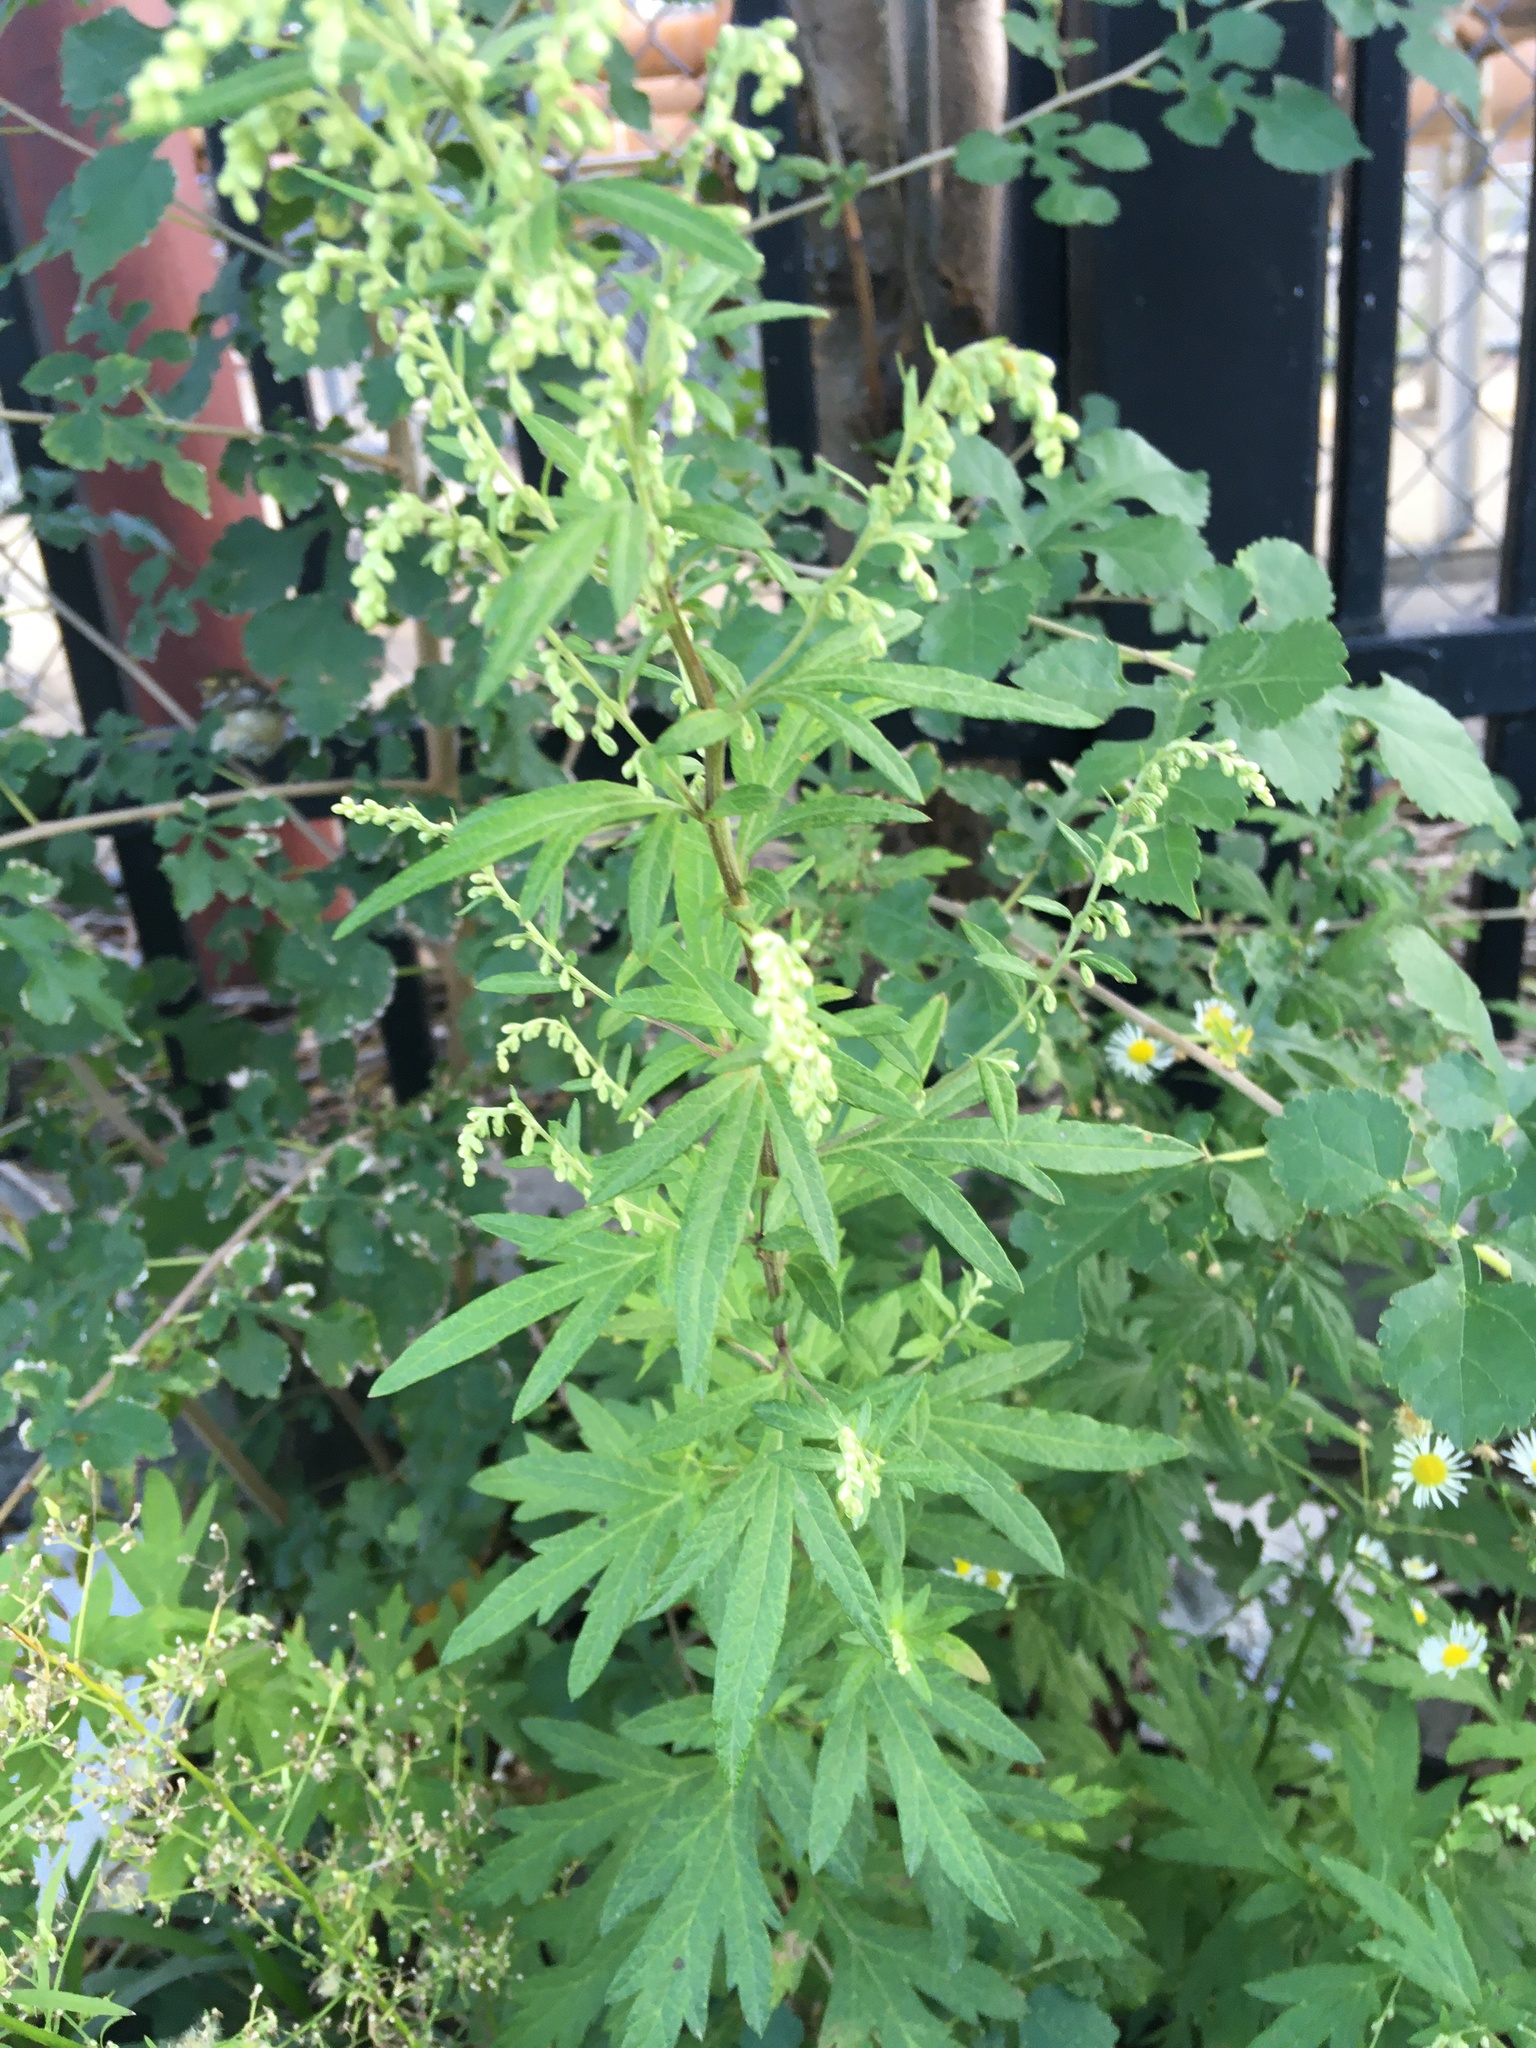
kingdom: Plantae
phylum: Tracheophyta
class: Magnoliopsida
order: Asterales
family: Asteraceae
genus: Artemisia
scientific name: Artemisia vulgaris
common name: Mugwort
